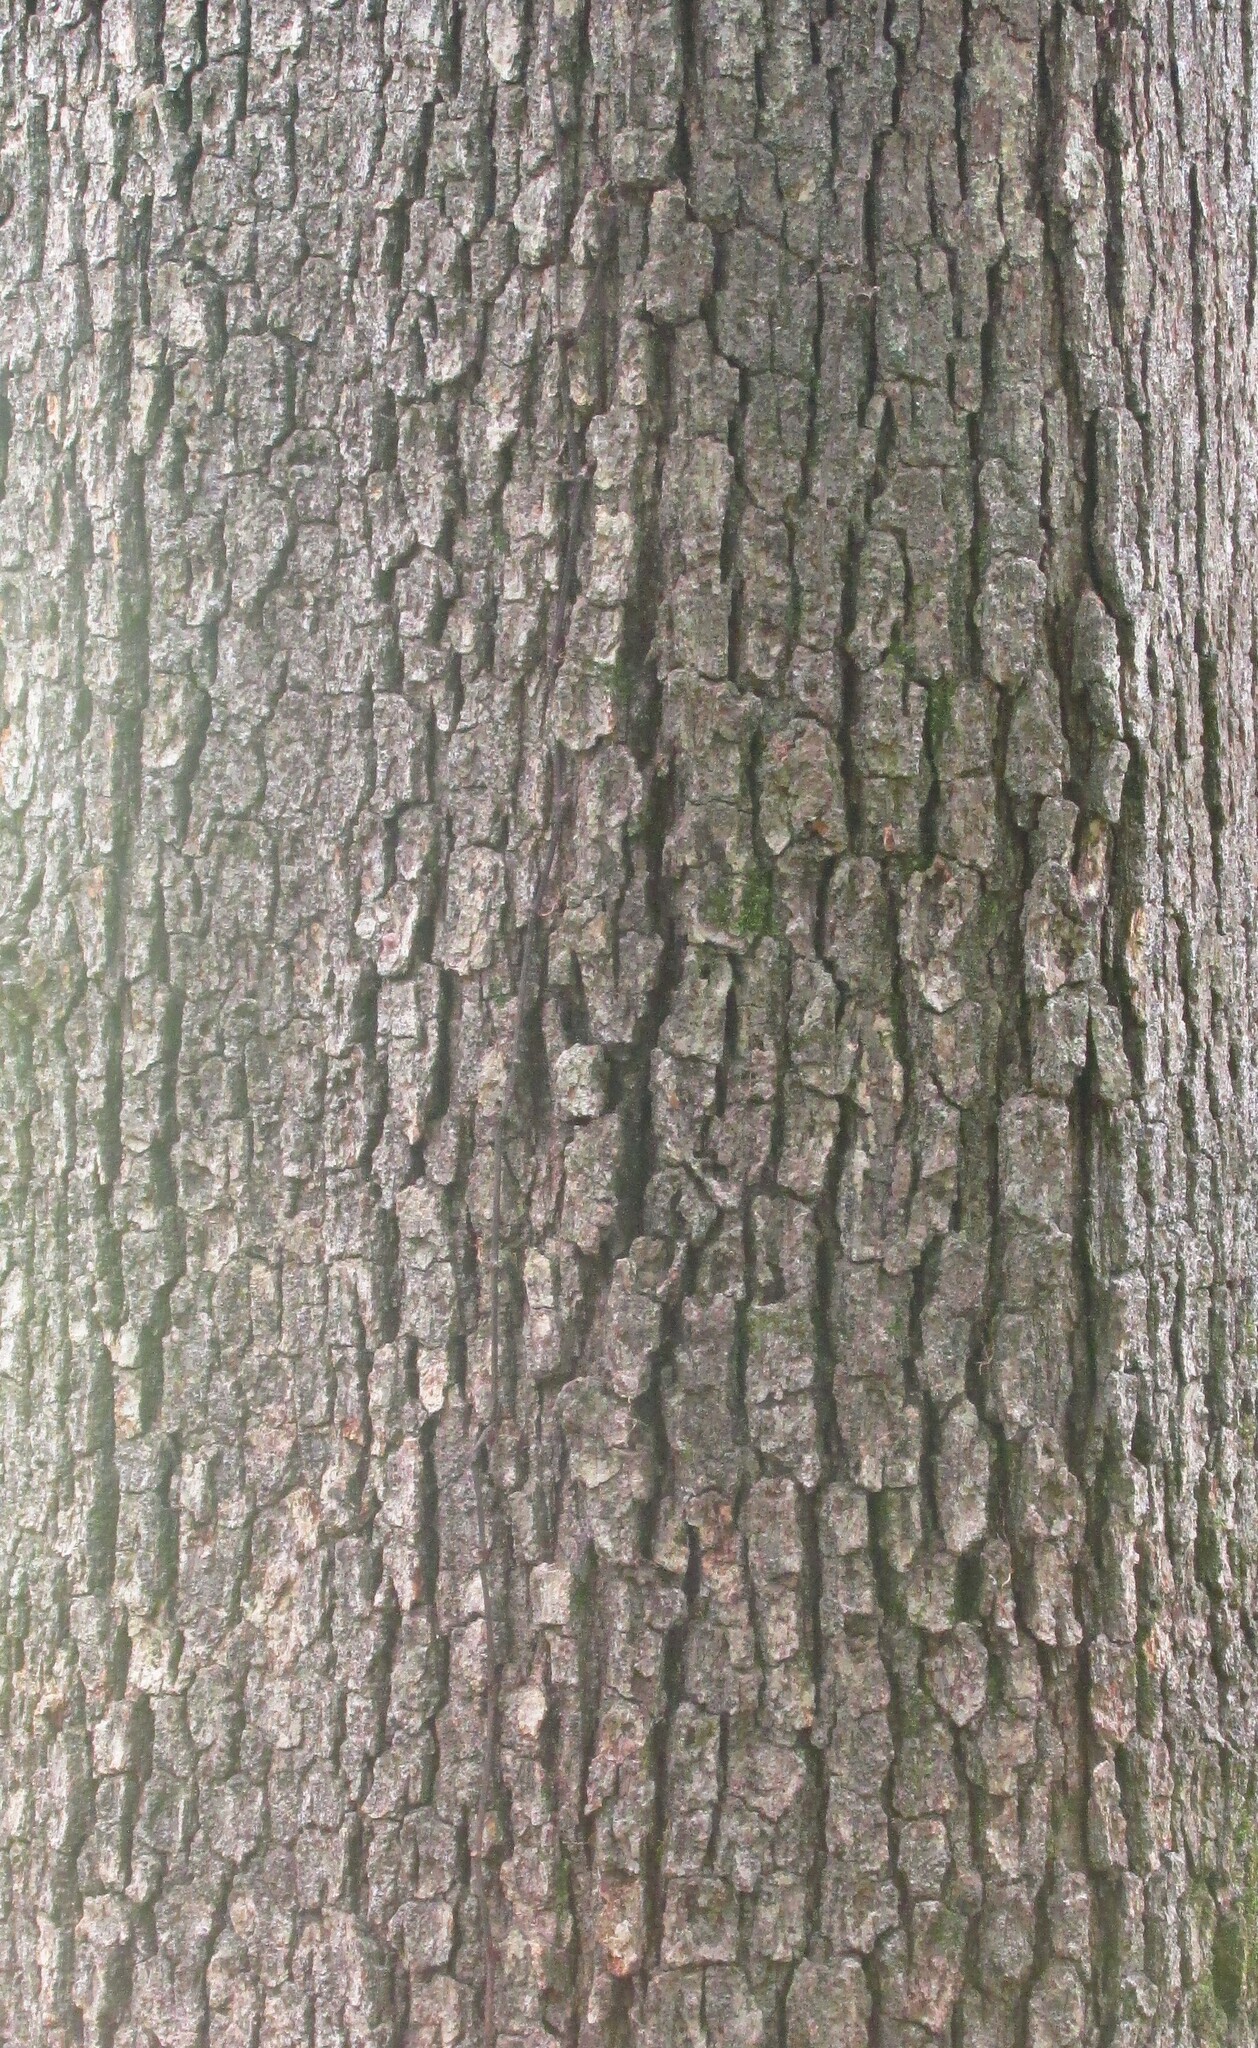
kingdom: Plantae
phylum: Tracheophyta
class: Magnoliopsida
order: Fagales
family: Fagaceae
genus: Quercus
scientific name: Quercus alba
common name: White oak
